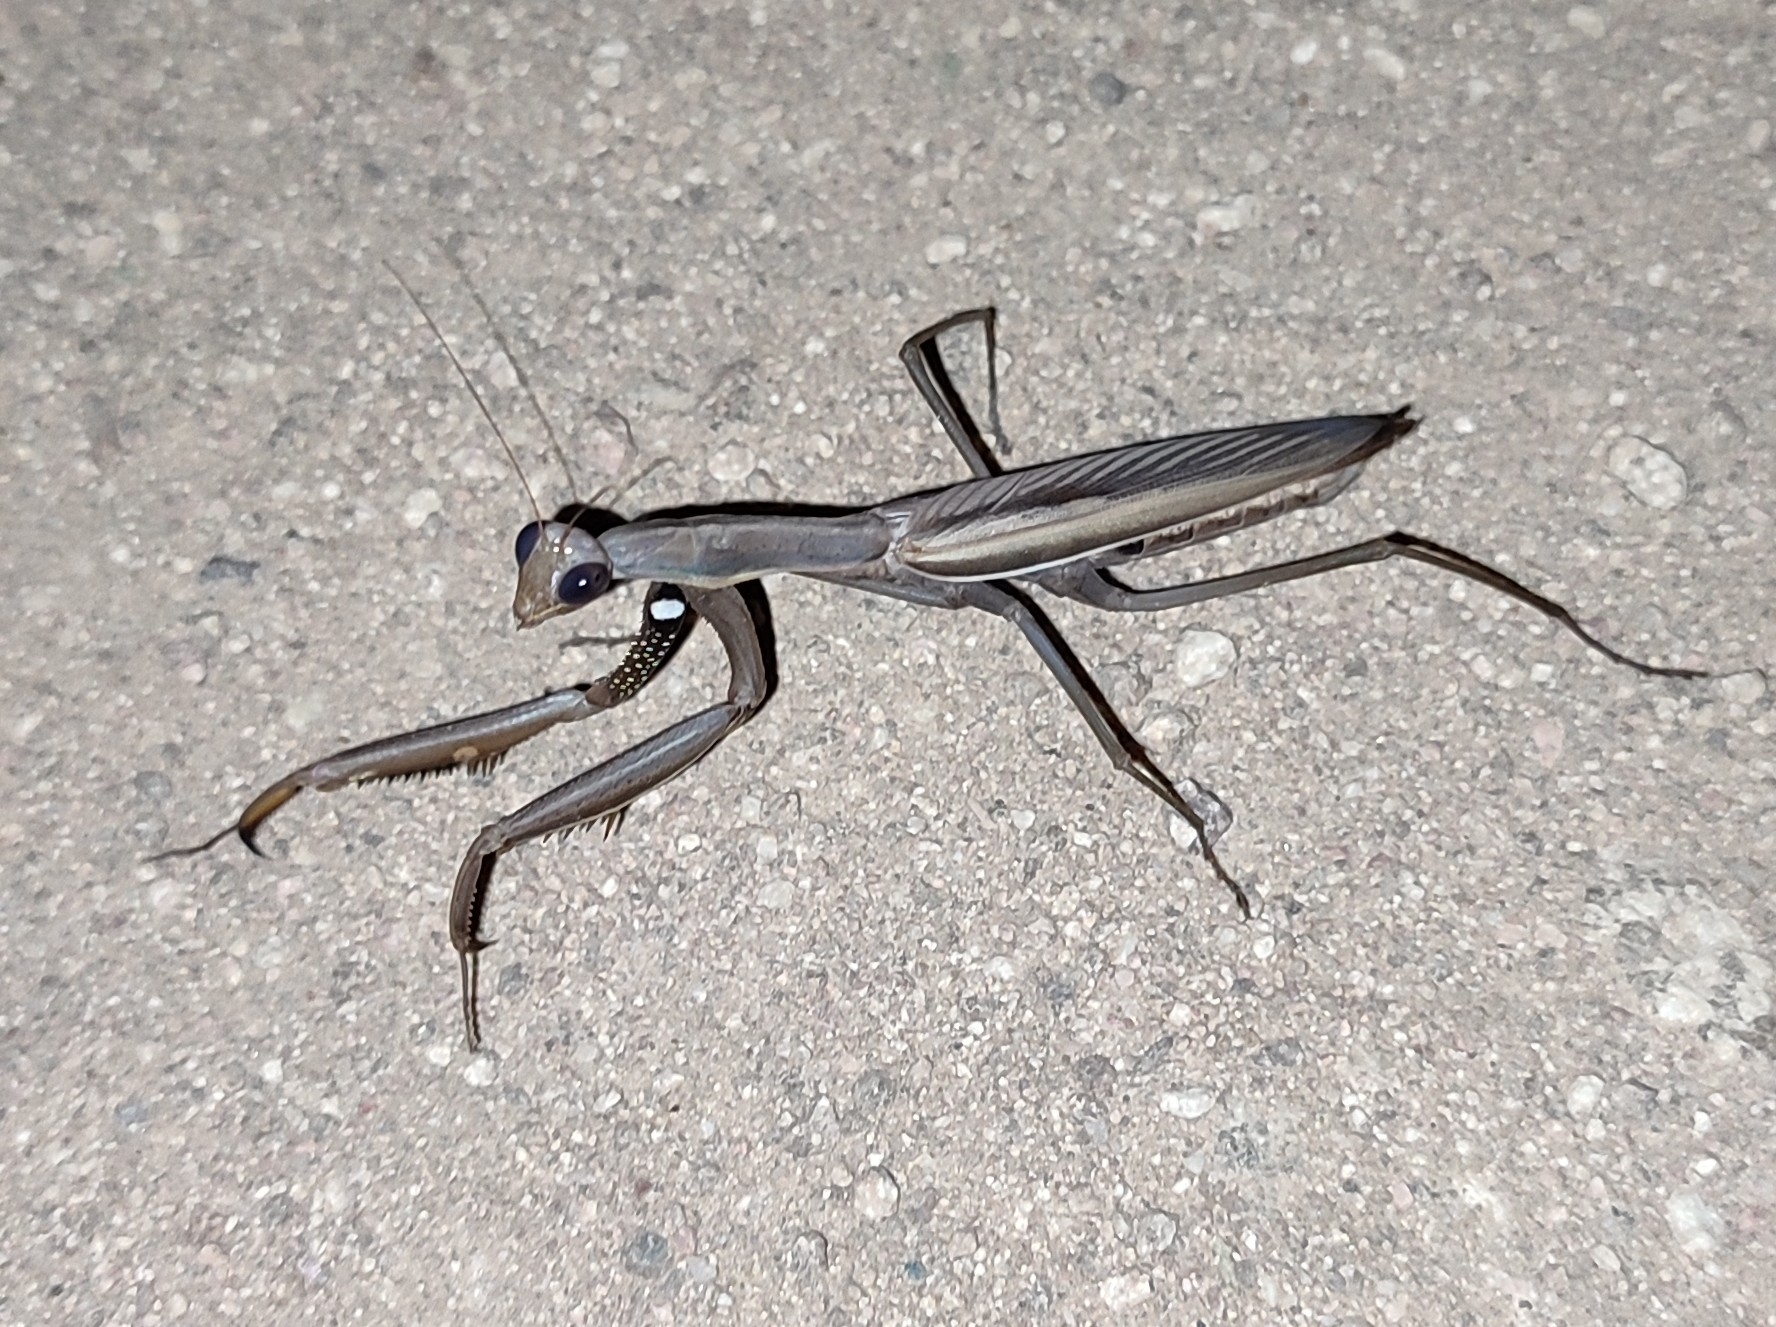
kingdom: Animalia
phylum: Arthropoda
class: Insecta
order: Mantodea
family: Mantidae
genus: Mantis
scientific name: Mantis religiosa
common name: Praying mantis
